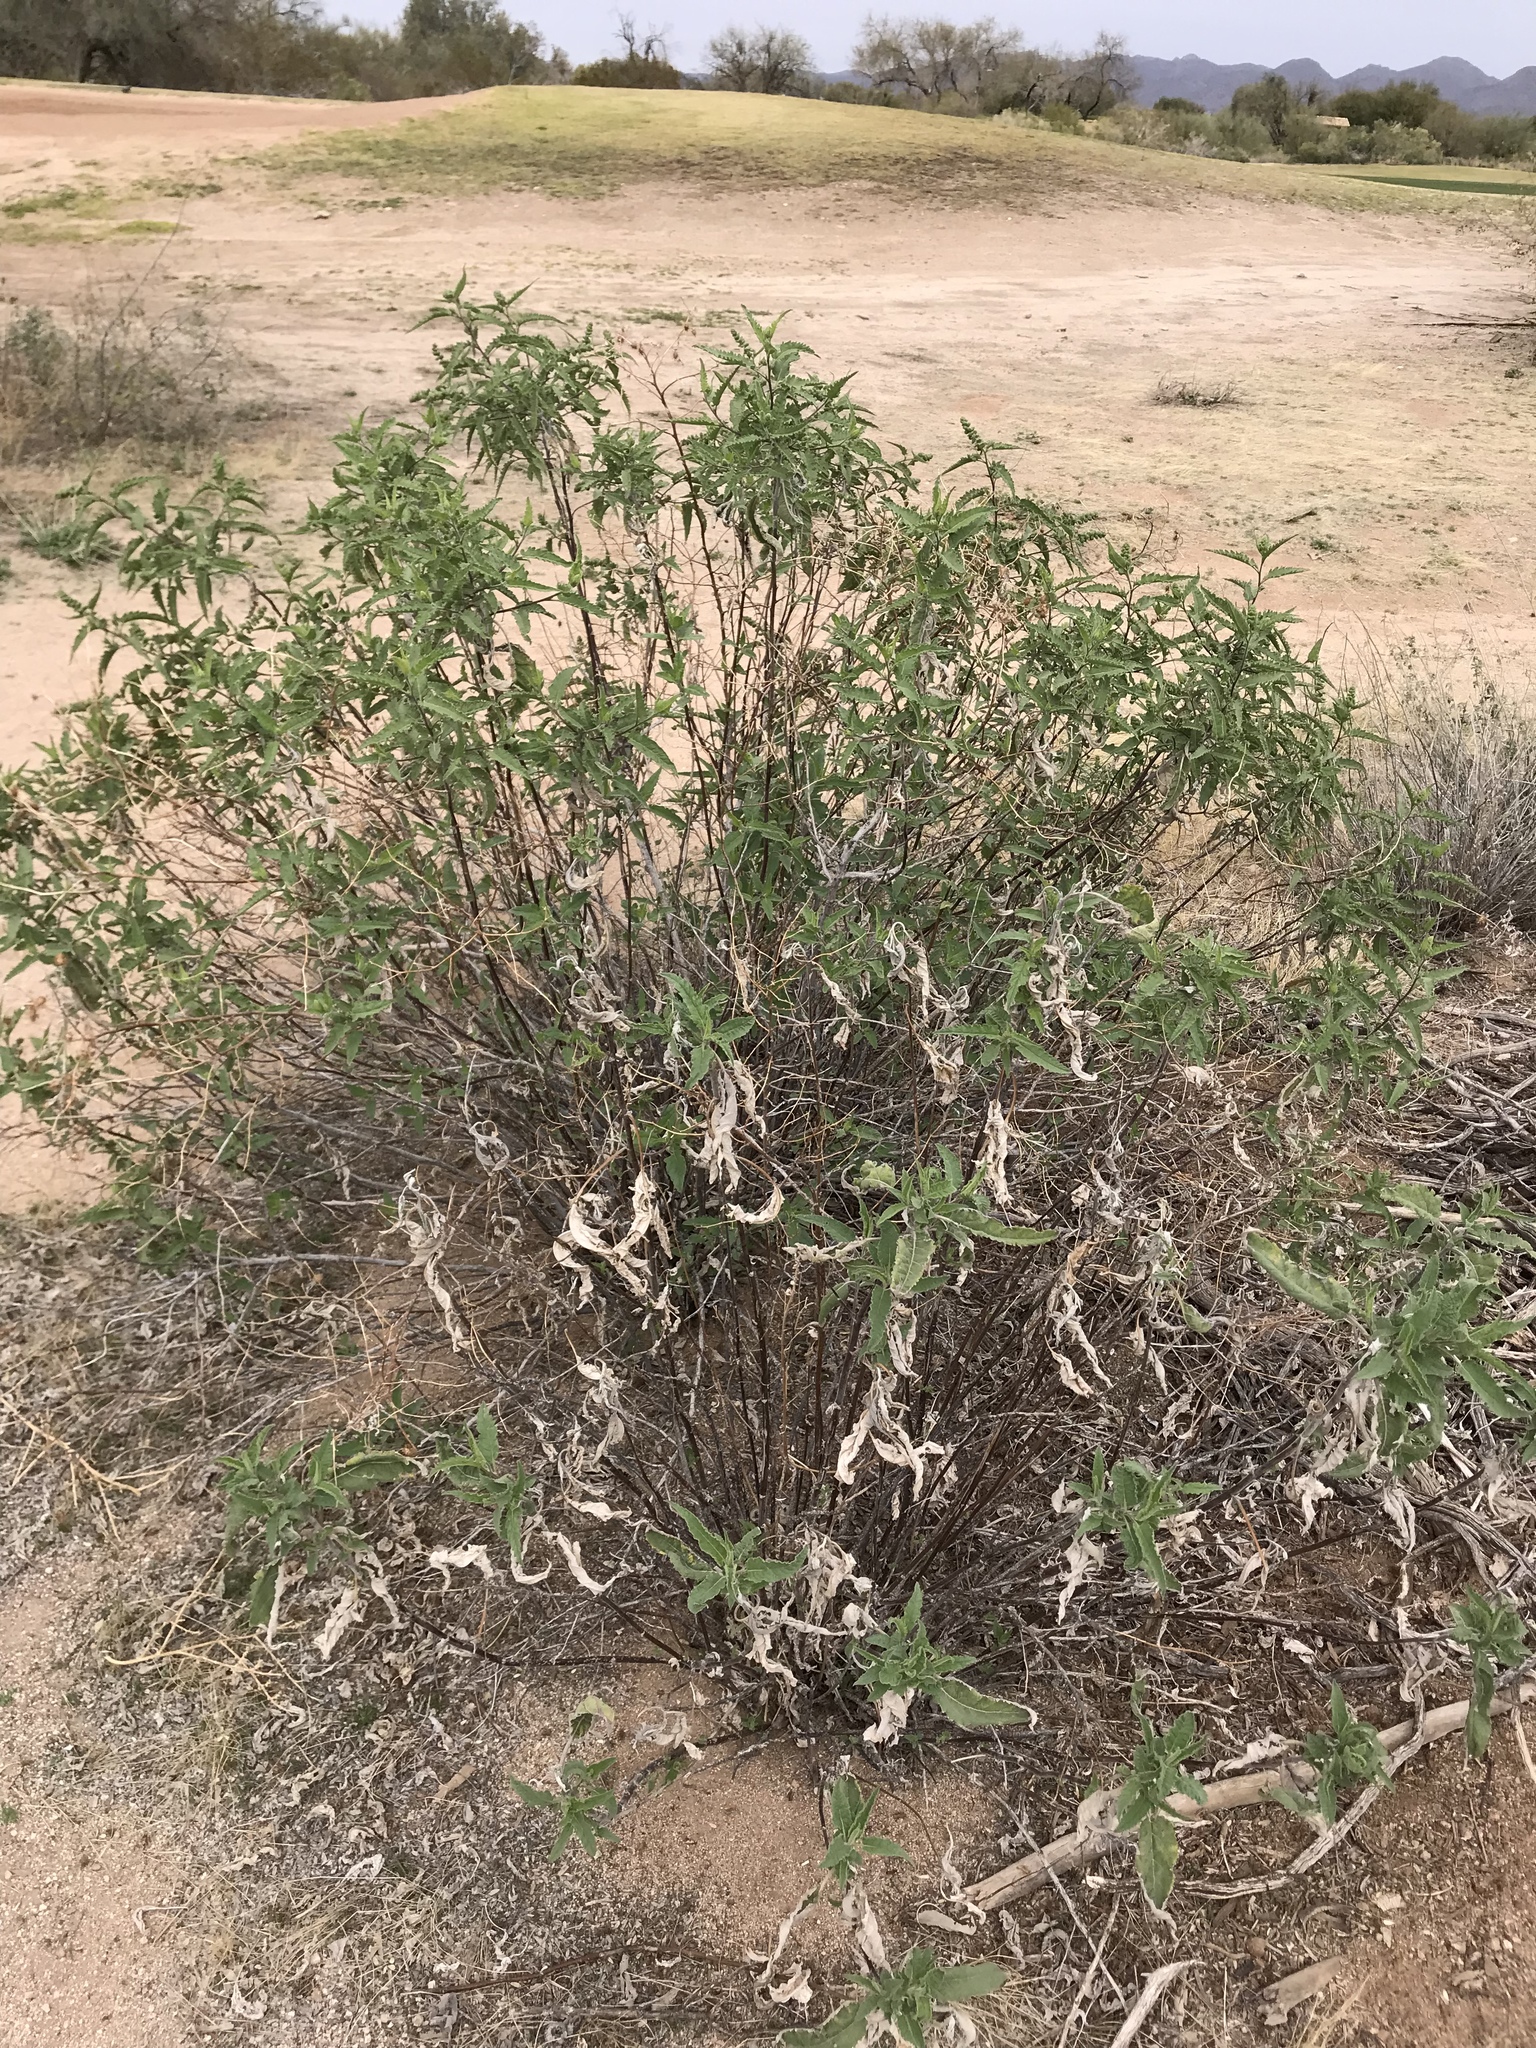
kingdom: Plantae
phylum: Tracheophyta
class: Magnoliopsida
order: Asterales
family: Asteraceae
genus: Ambrosia
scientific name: Ambrosia ambrosioides
